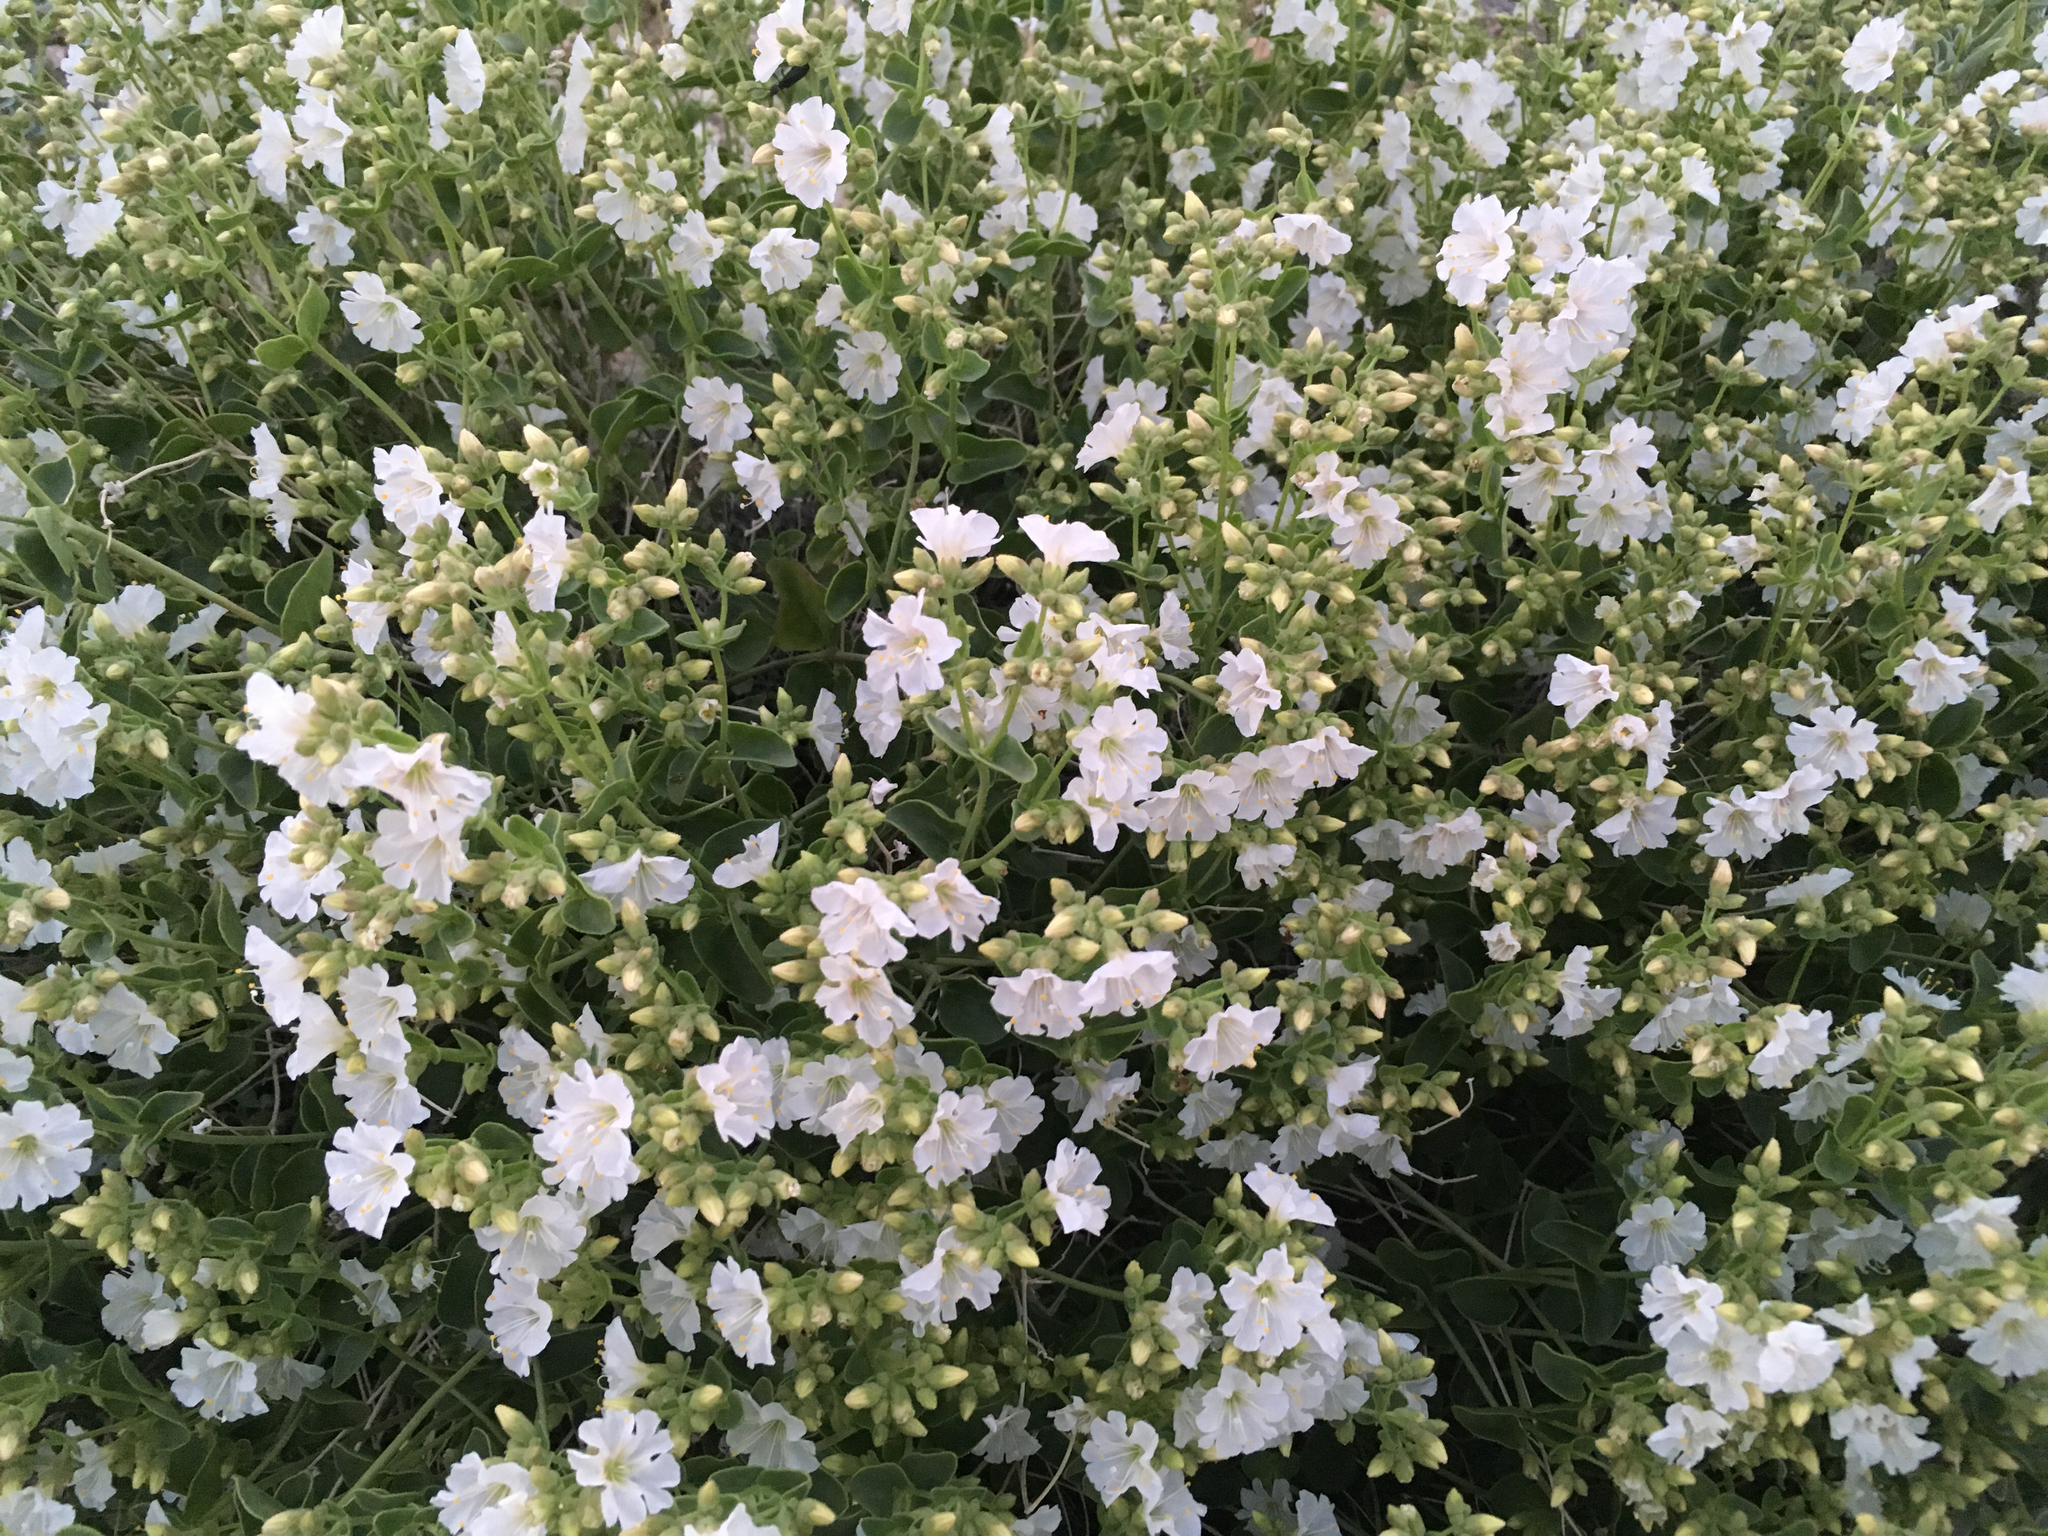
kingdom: Plantae
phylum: Tracheophyta
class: Magnoliopsida
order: Caryophyllales
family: Nyctaginaceae
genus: Mirabilis
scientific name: Mirabilis laevis
